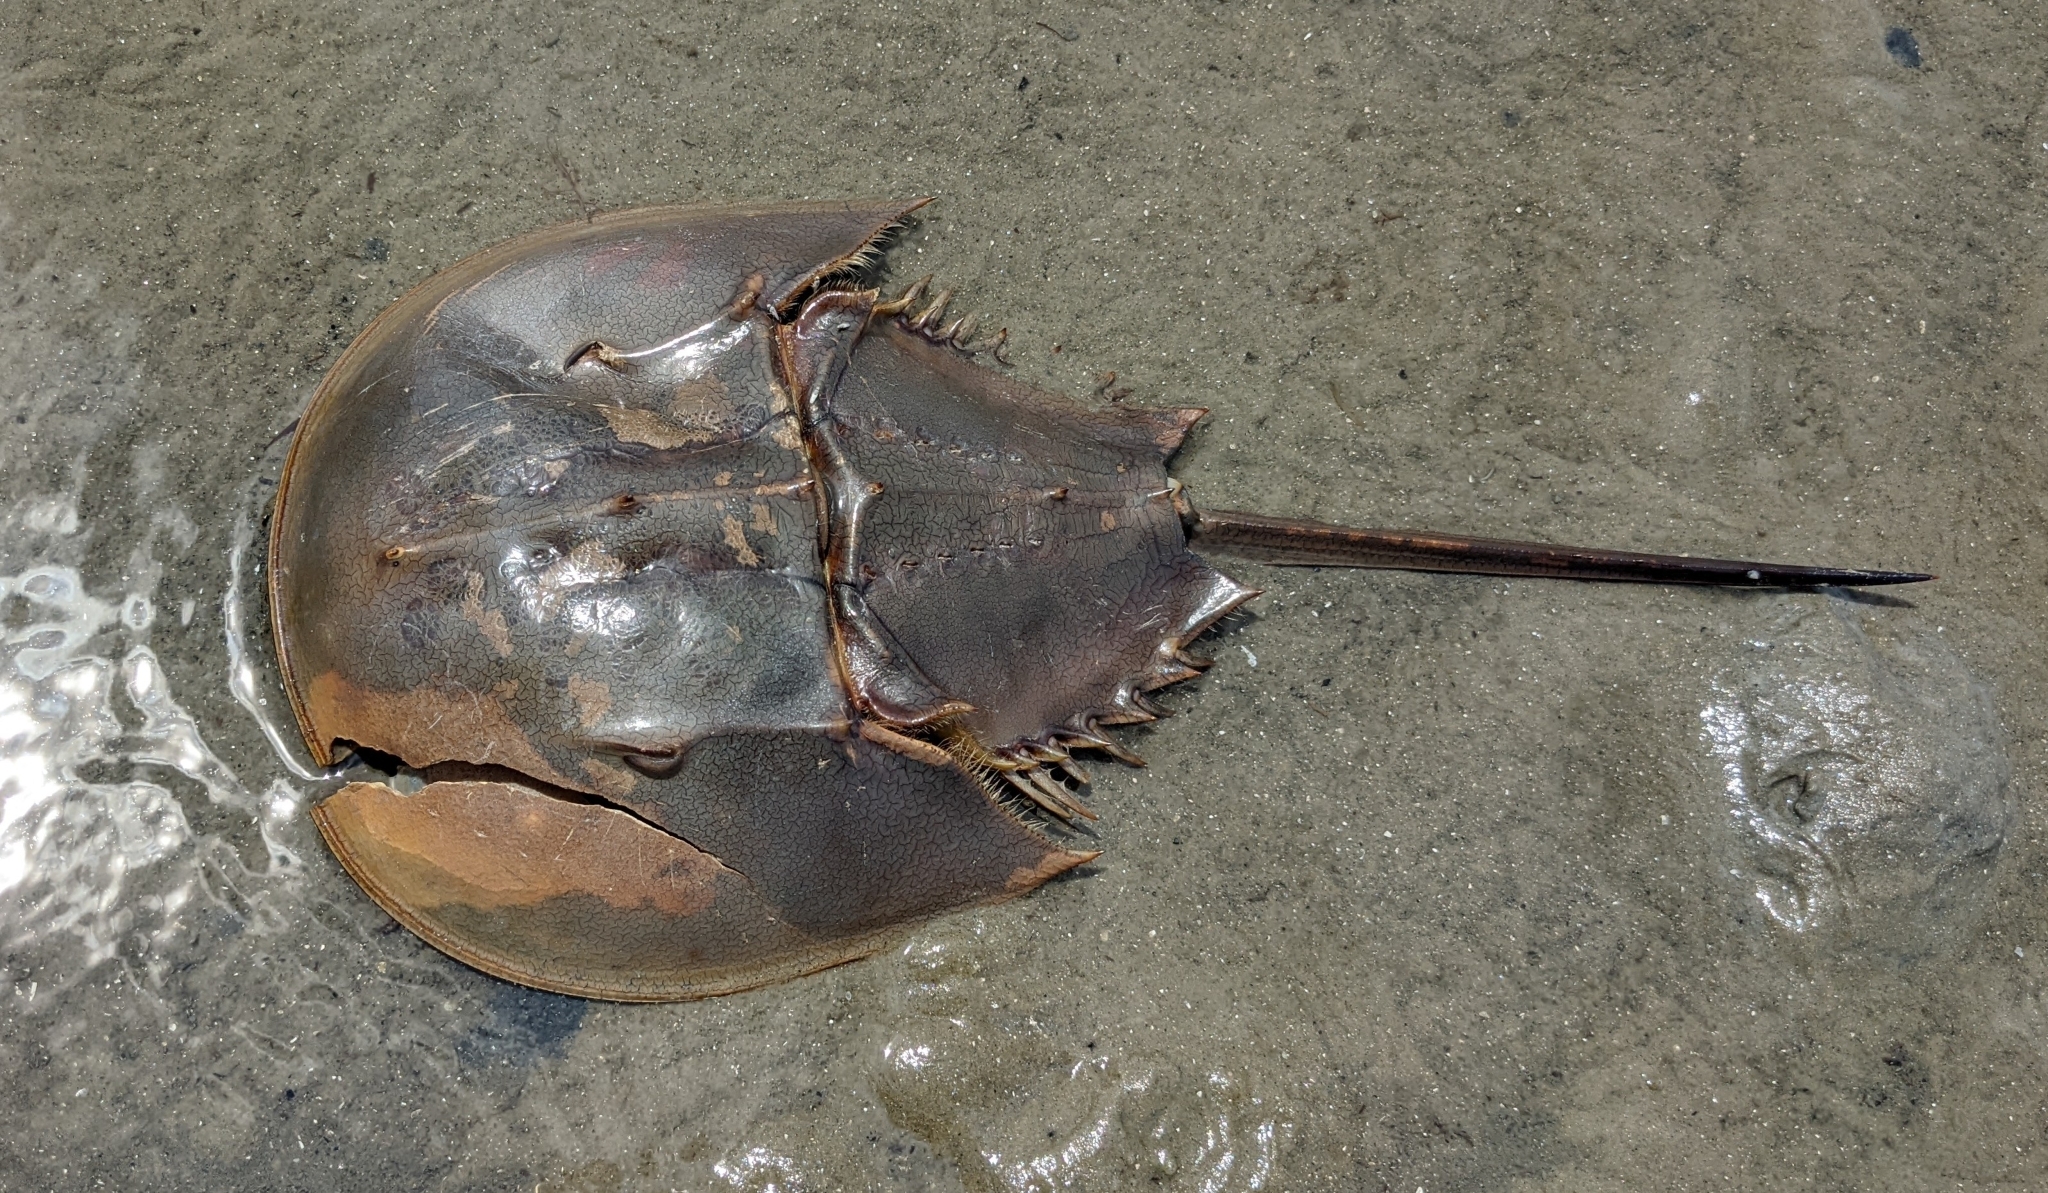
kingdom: Animalia
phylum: Arthropoda
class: Merostomata
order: Xiphosurida
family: Limulidae
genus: Limulus
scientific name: Limulus polyphemus
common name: Horseshoe crab
